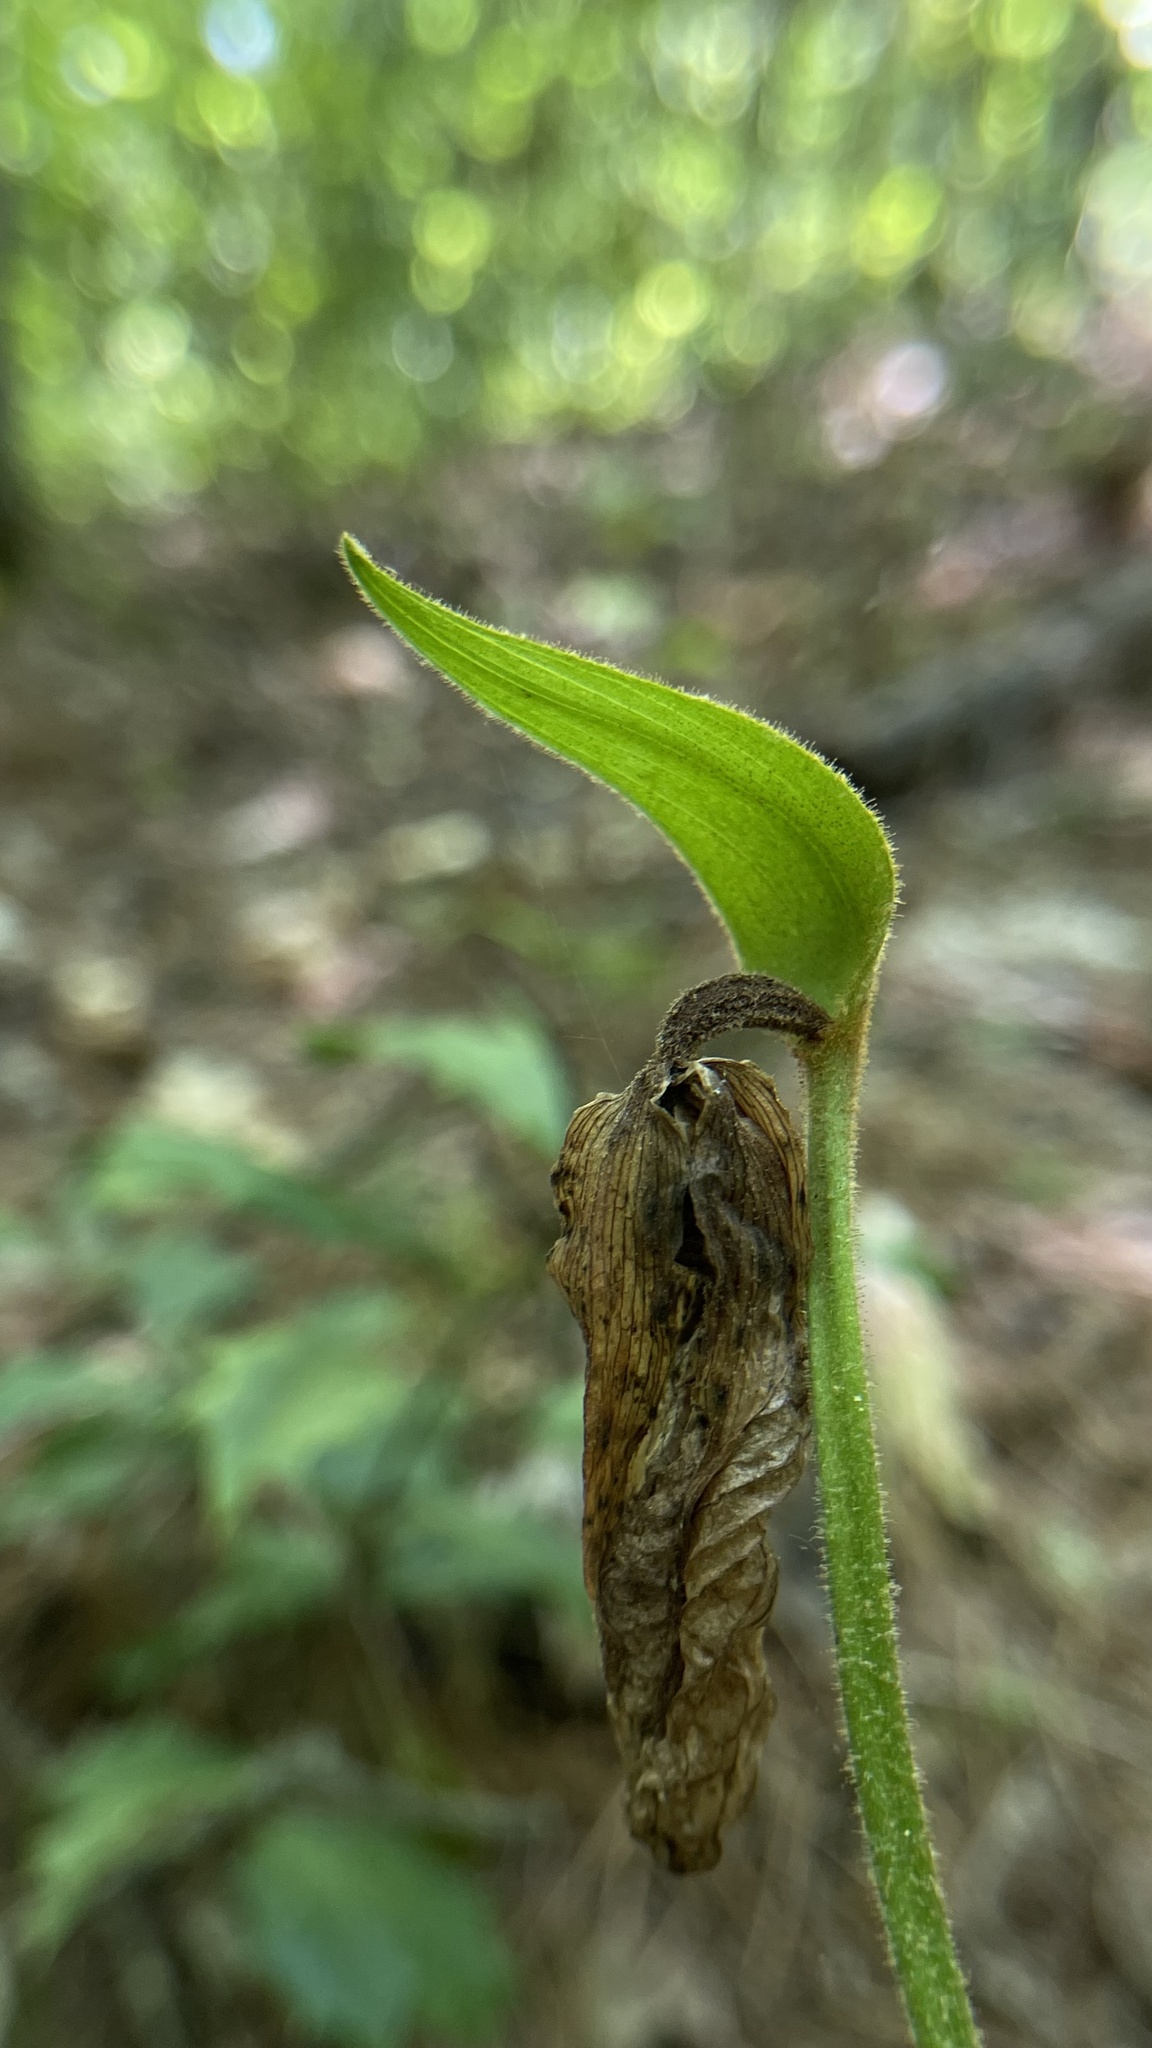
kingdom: Plantae
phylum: Tracheophyta
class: Liliopsida
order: Asparagales
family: Orchidaceae
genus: Cypripedium
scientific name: Cypripedium acaule
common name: Pink lady's-slipper
